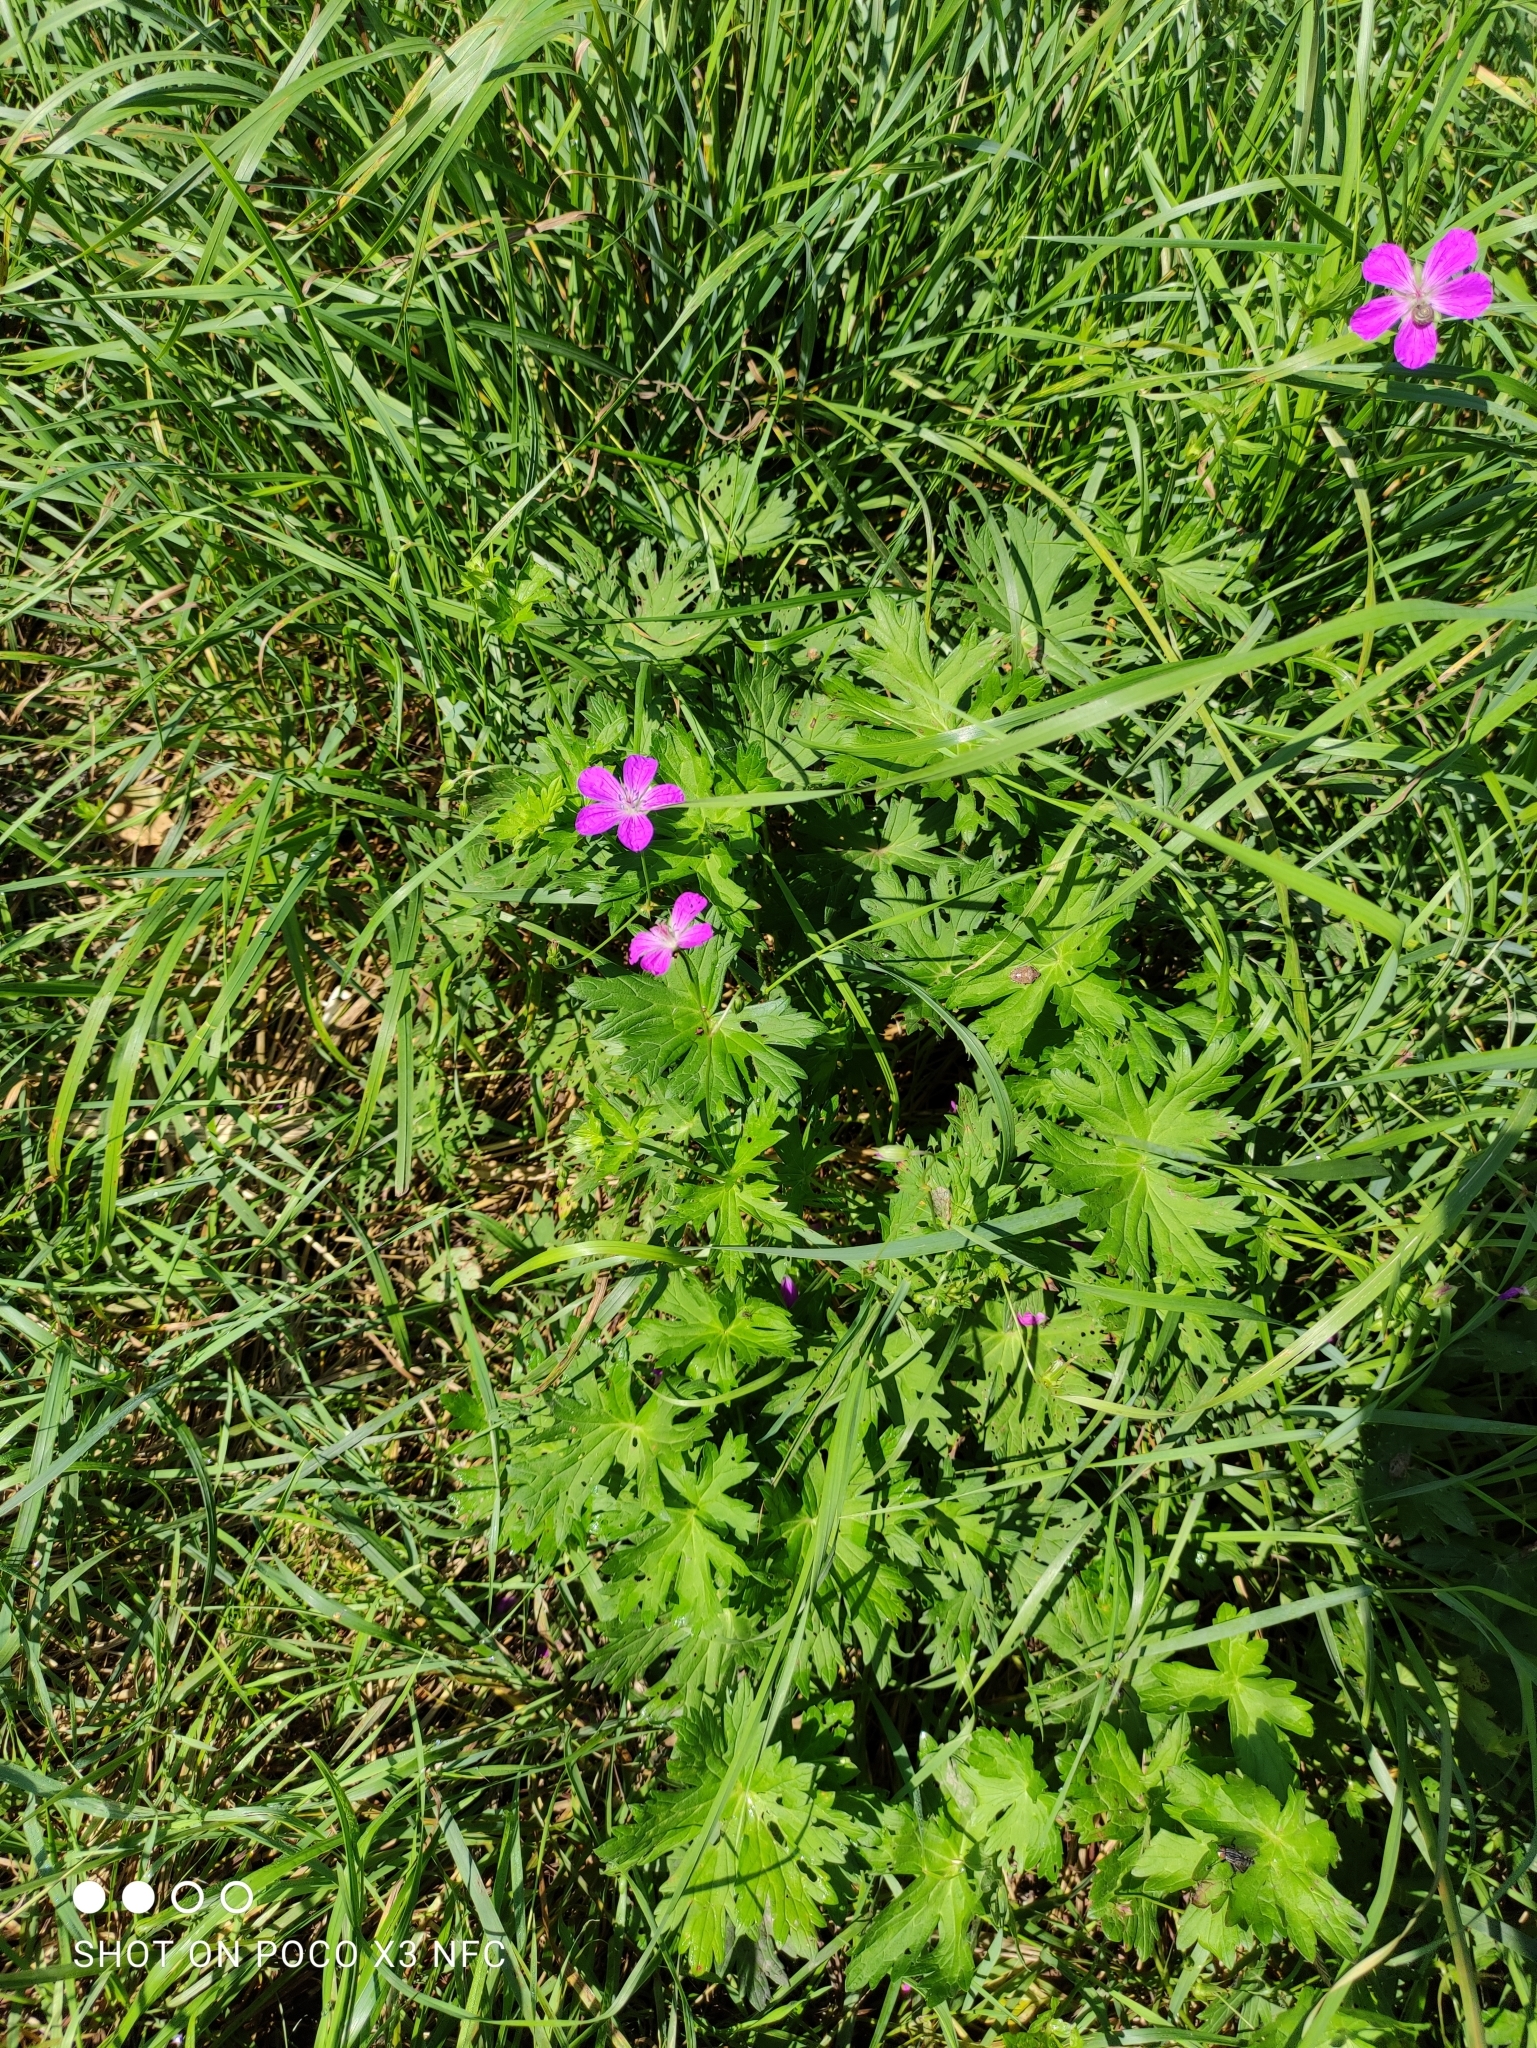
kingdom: Plantae
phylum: Tracheophyta
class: Magnoliopsida
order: Geraniales
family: Geraniaceae
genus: Geranium
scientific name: Geranium palustre
